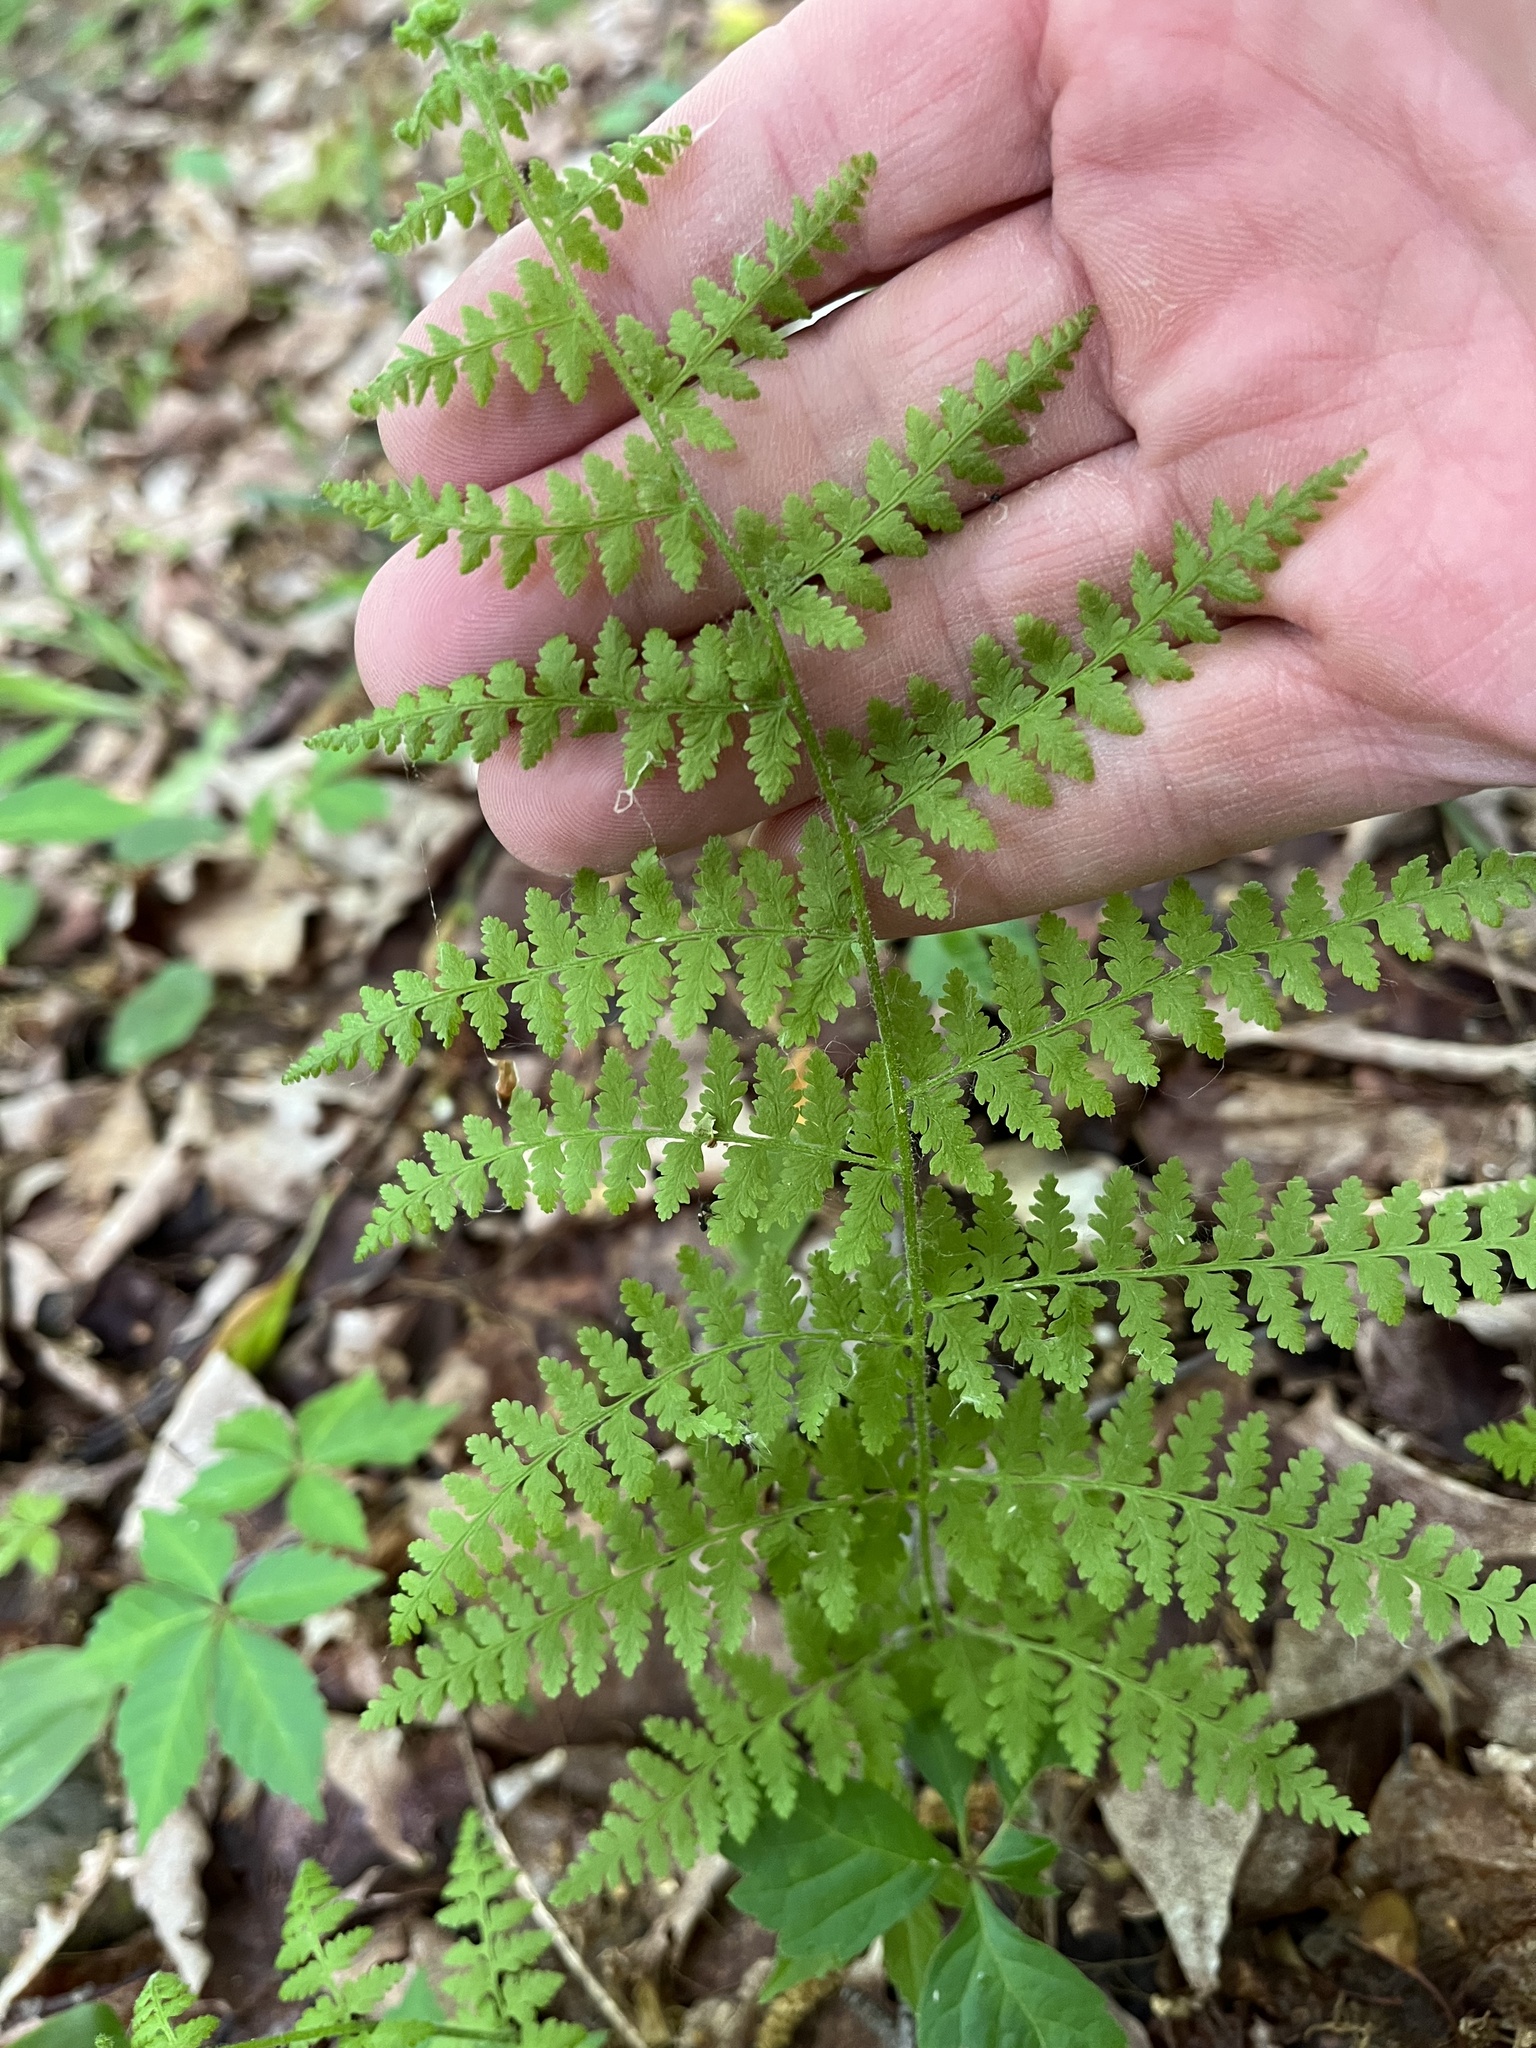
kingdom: Plantae
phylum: Tracheophyta
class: Polypodiopsida
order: Polypodiales
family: Dennstaedtiaceae
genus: Sitobolium
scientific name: Sitobolium punctilobum
